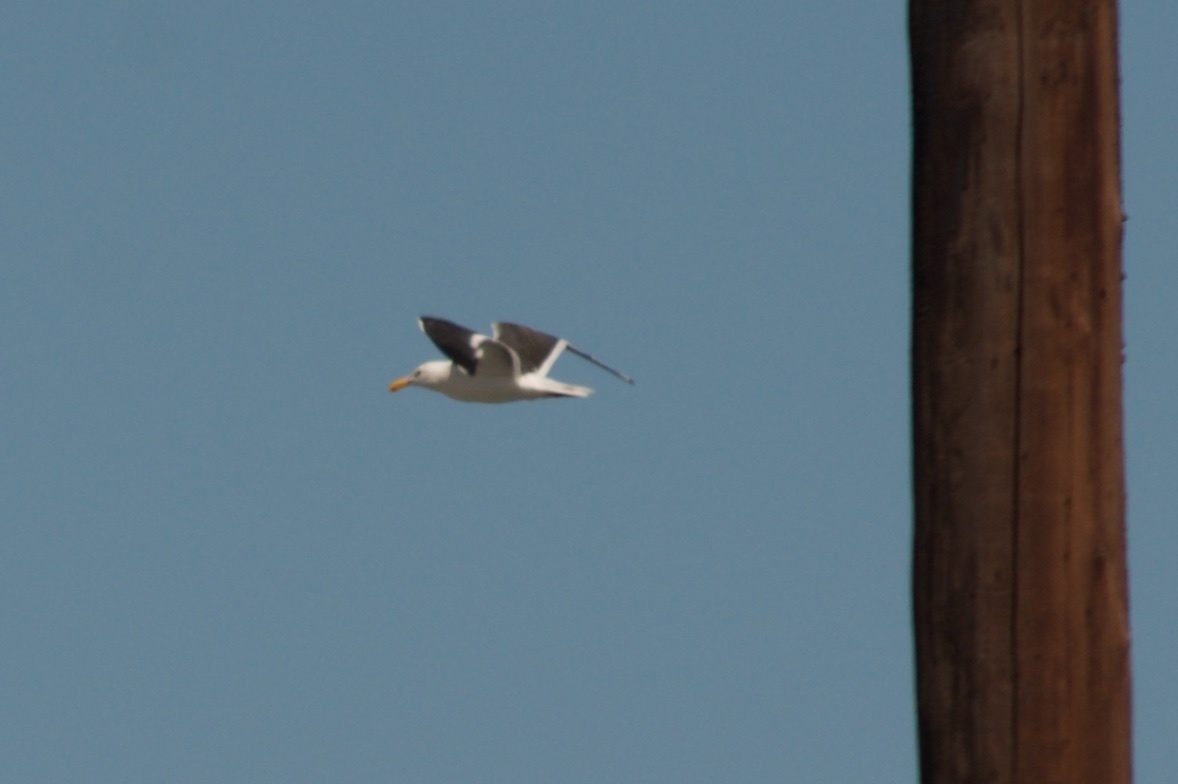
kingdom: Animalia
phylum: Chordata
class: Aves
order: Charadriiformes
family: Laridae
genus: Larus
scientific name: Larus occidentalis
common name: Western gull
